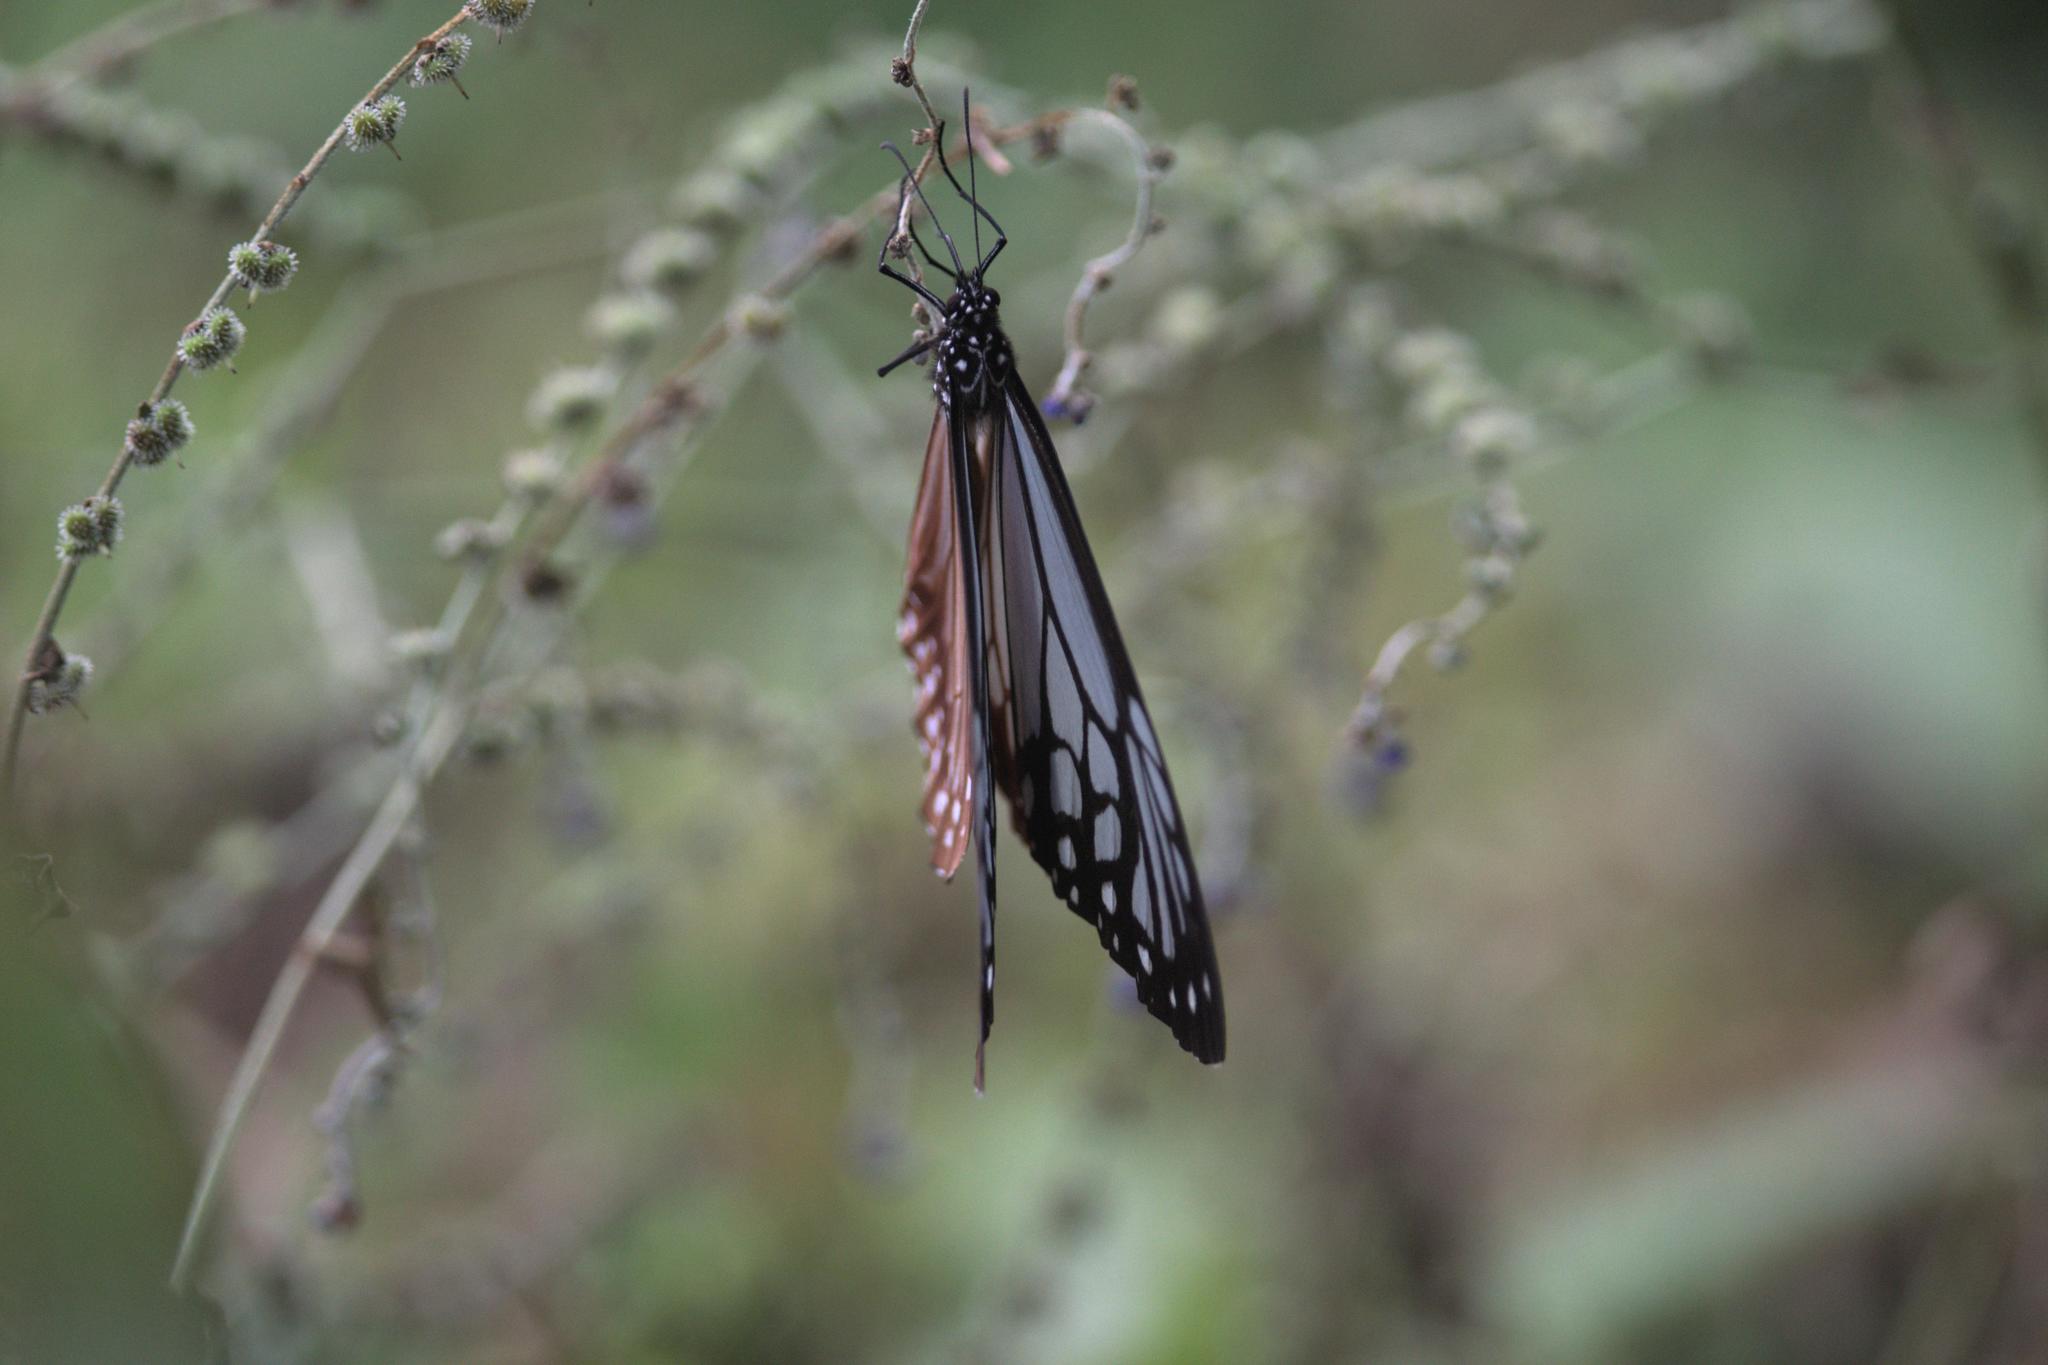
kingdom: Animalia
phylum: Arthropoda
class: Insecta
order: Lepidoptera
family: Nymphalidae
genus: Parantica
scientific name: Parantica sita
